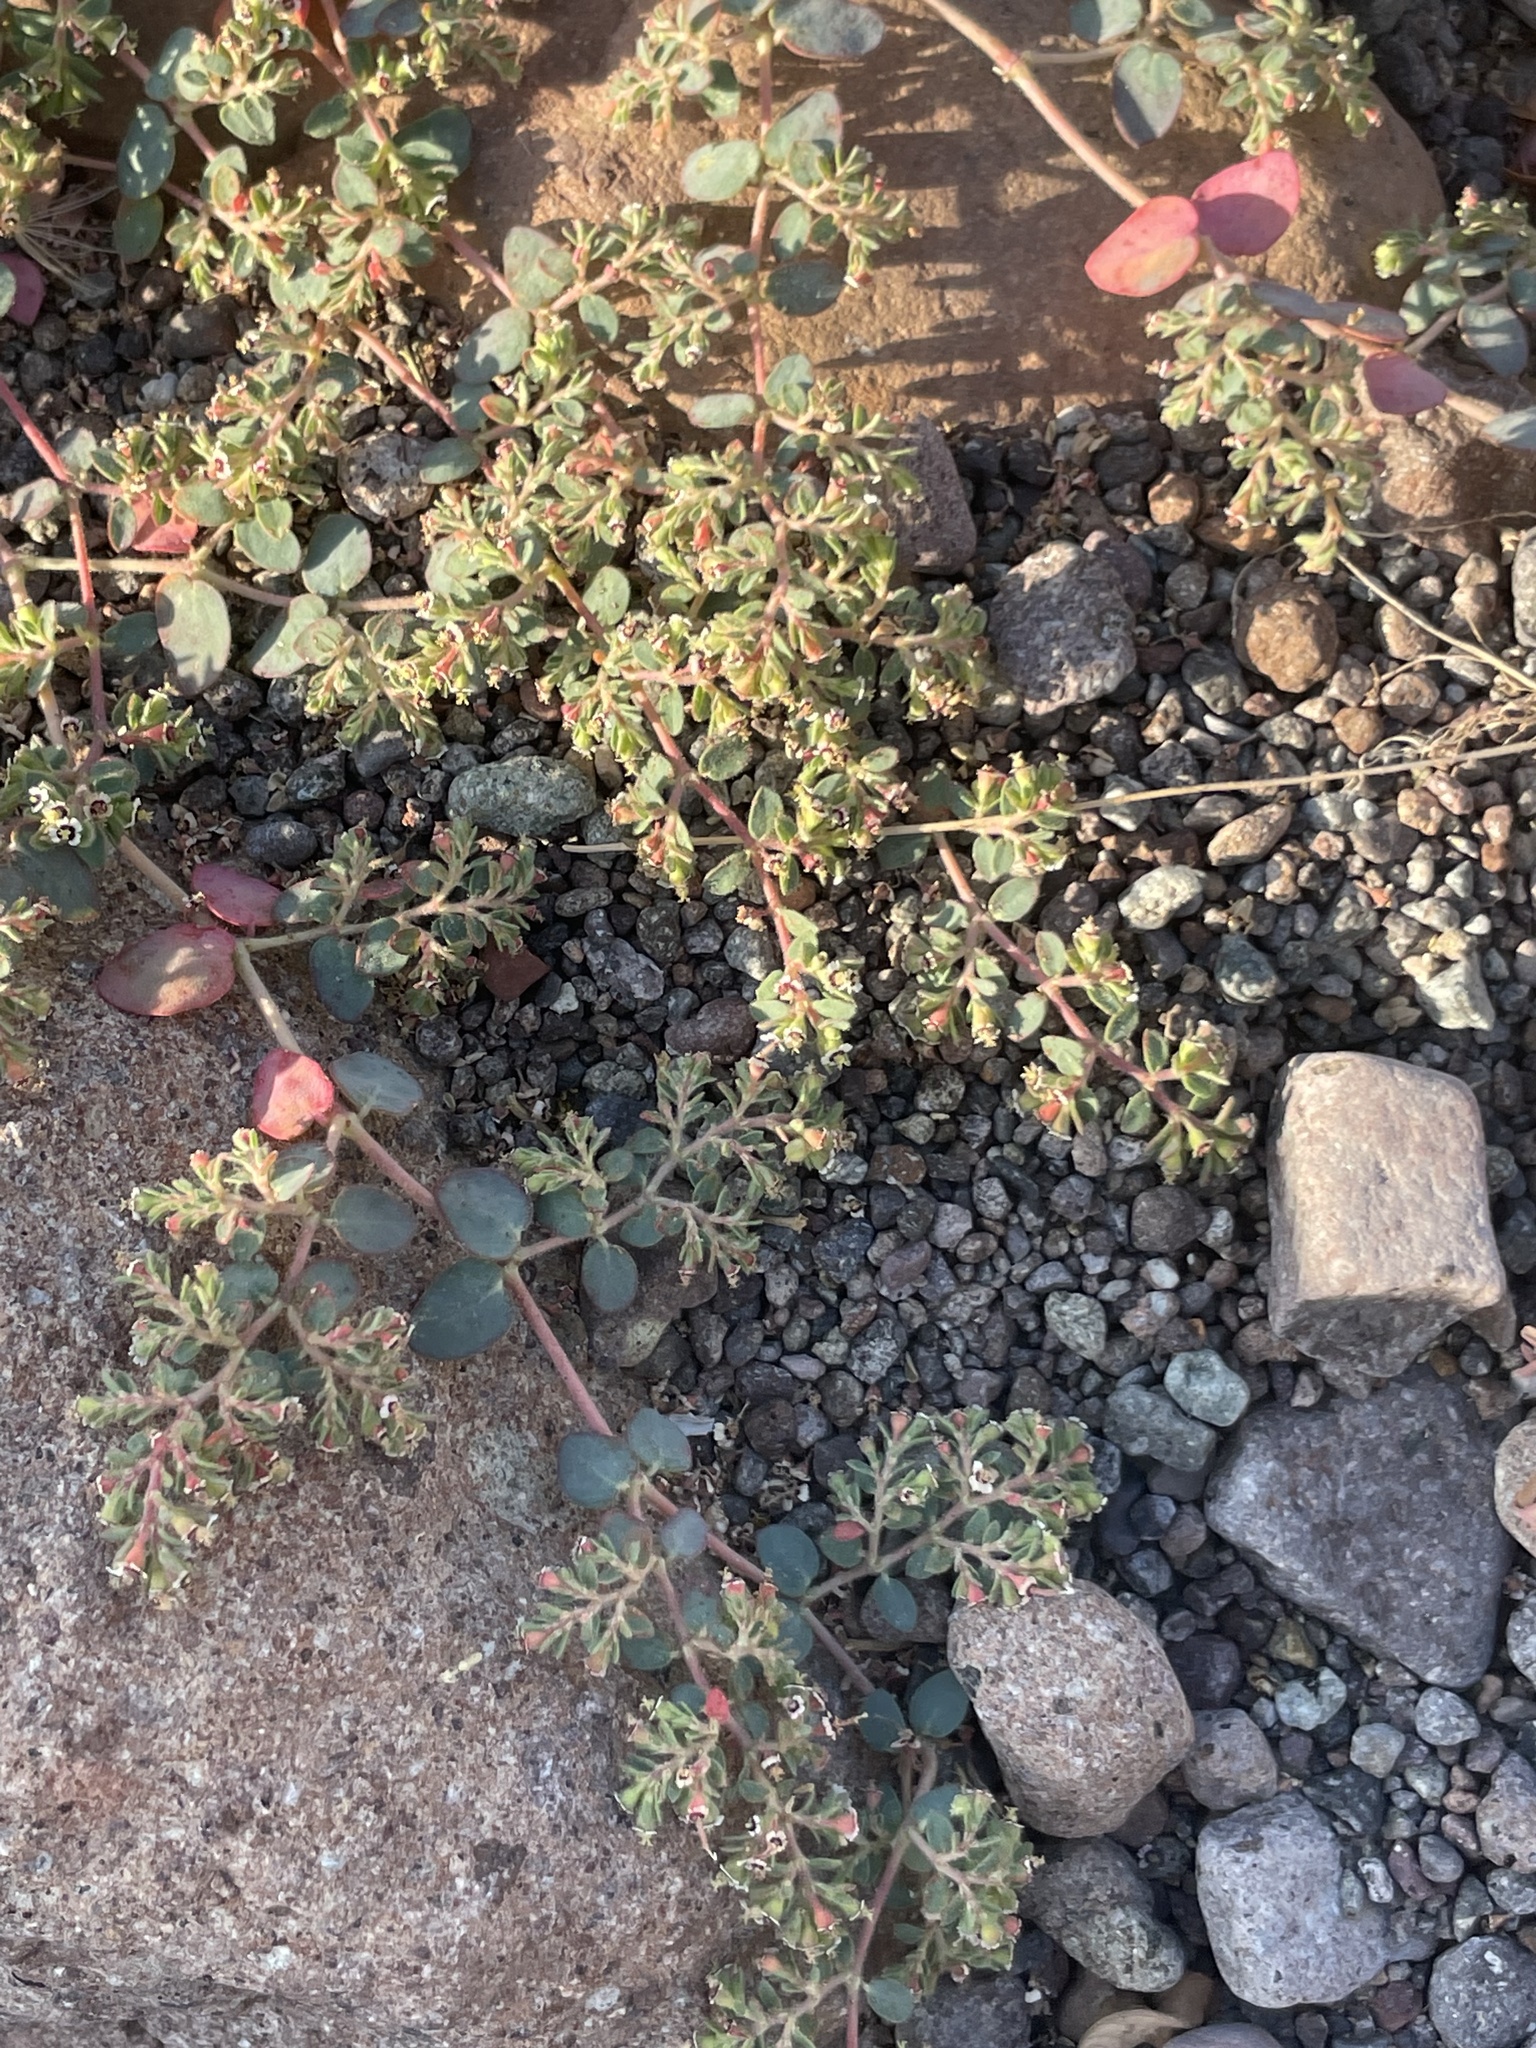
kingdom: Plantae
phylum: Tracheophyta
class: Magnoliopsida
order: Malpighiales
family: Euphorbiaceae
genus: Euphorbia
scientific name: Euphorbia arizonica
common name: Arizona spurge
